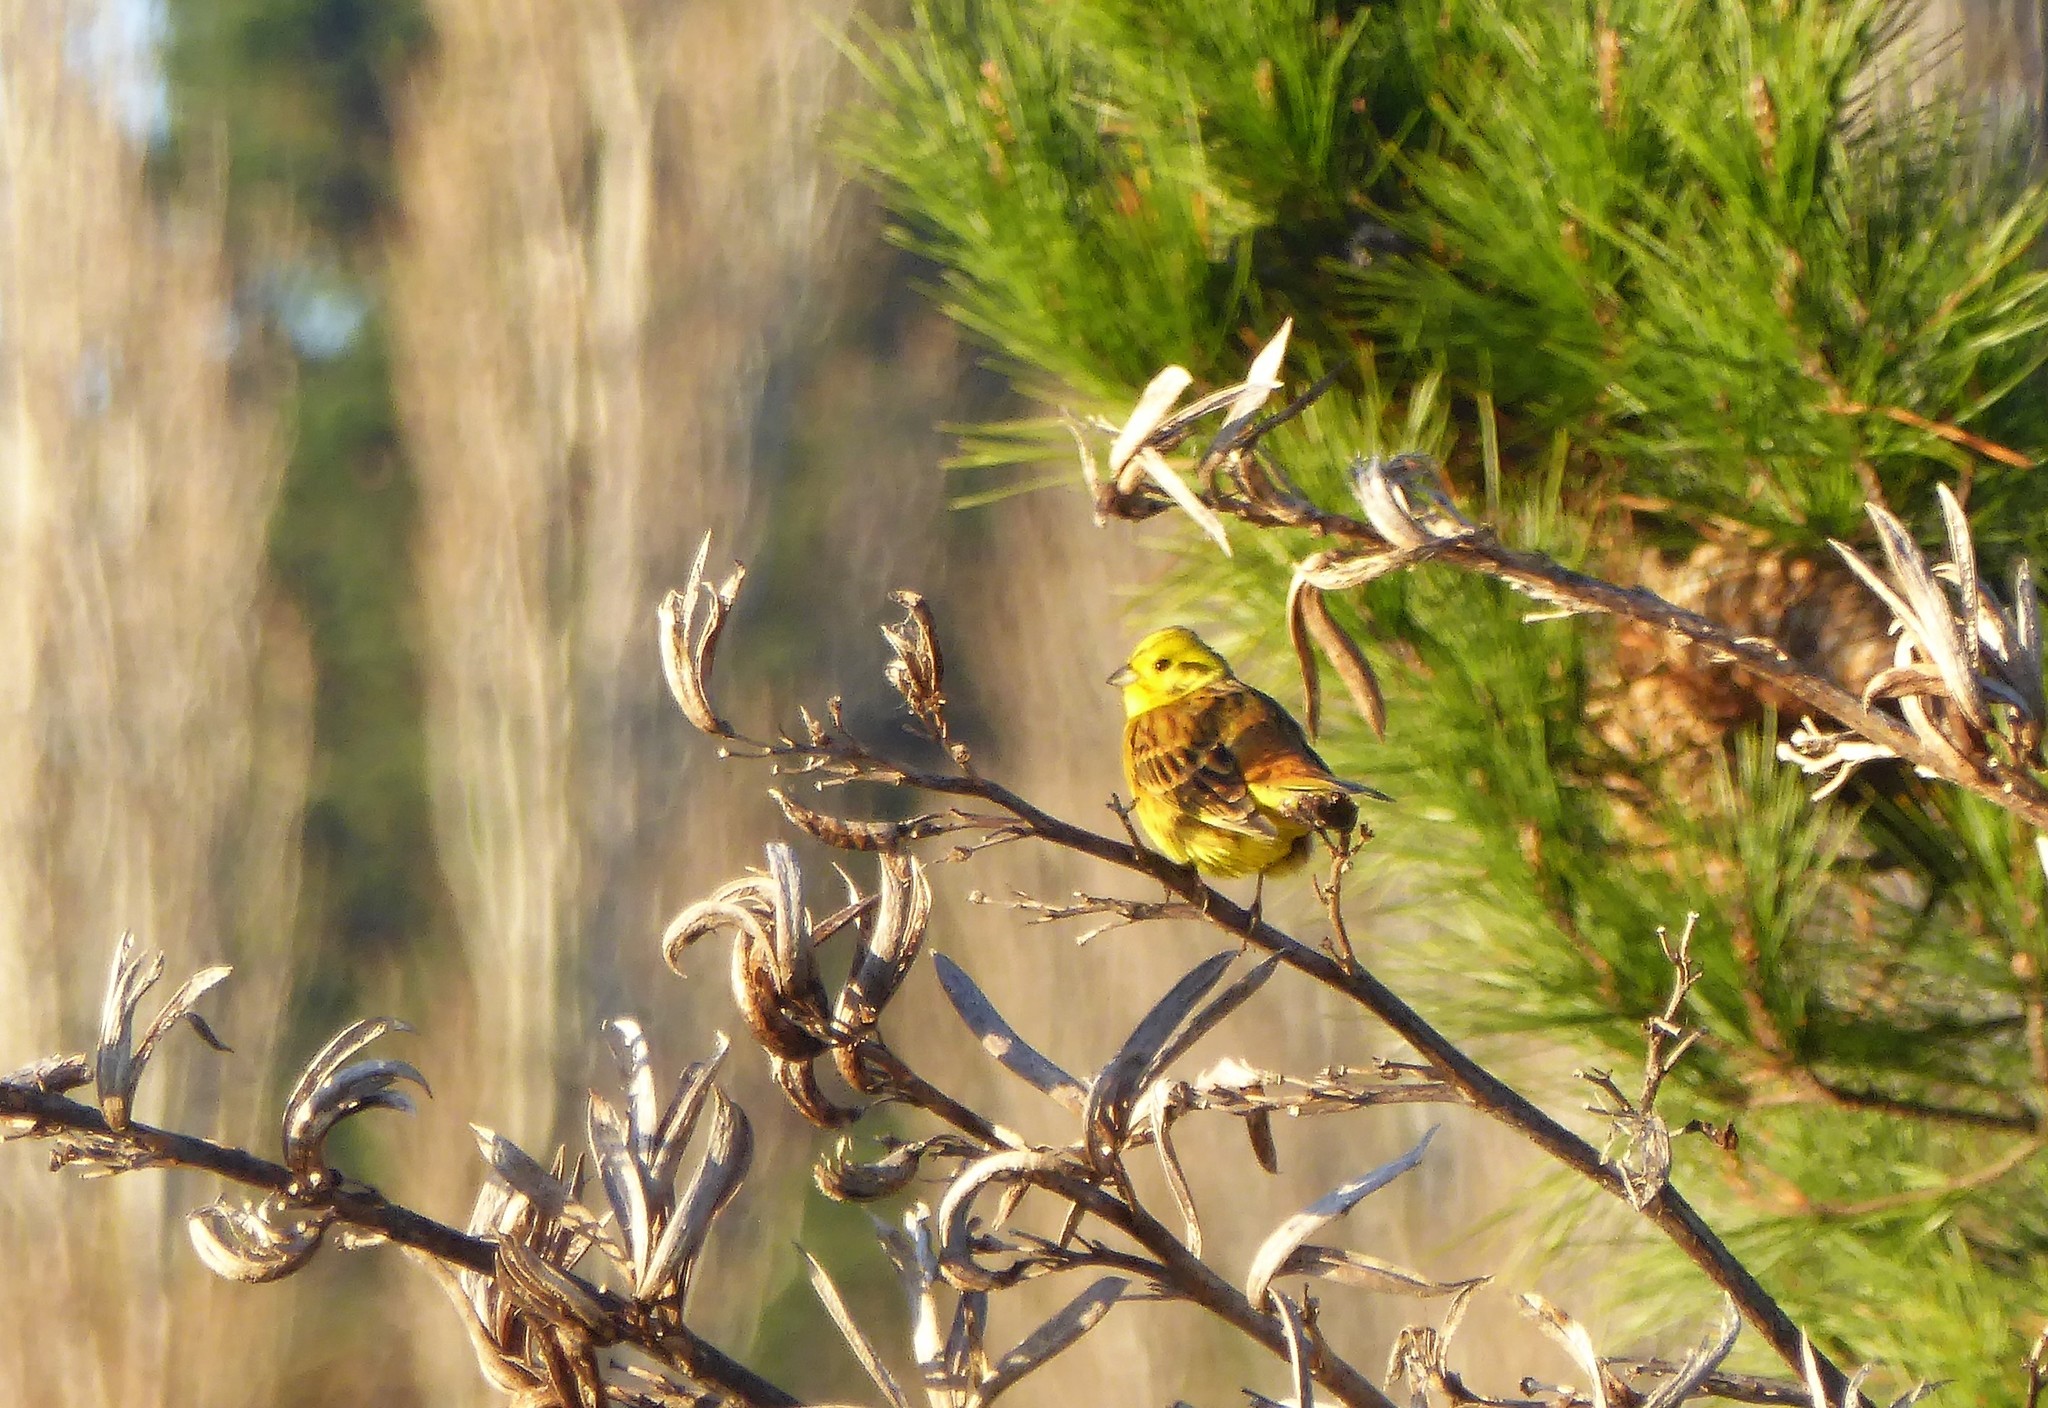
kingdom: Animalia
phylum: Chordata
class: Aves
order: Passeriformes
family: Emberizidae
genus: Emberiza
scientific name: Emberiza citrinella
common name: Yellowhammer
